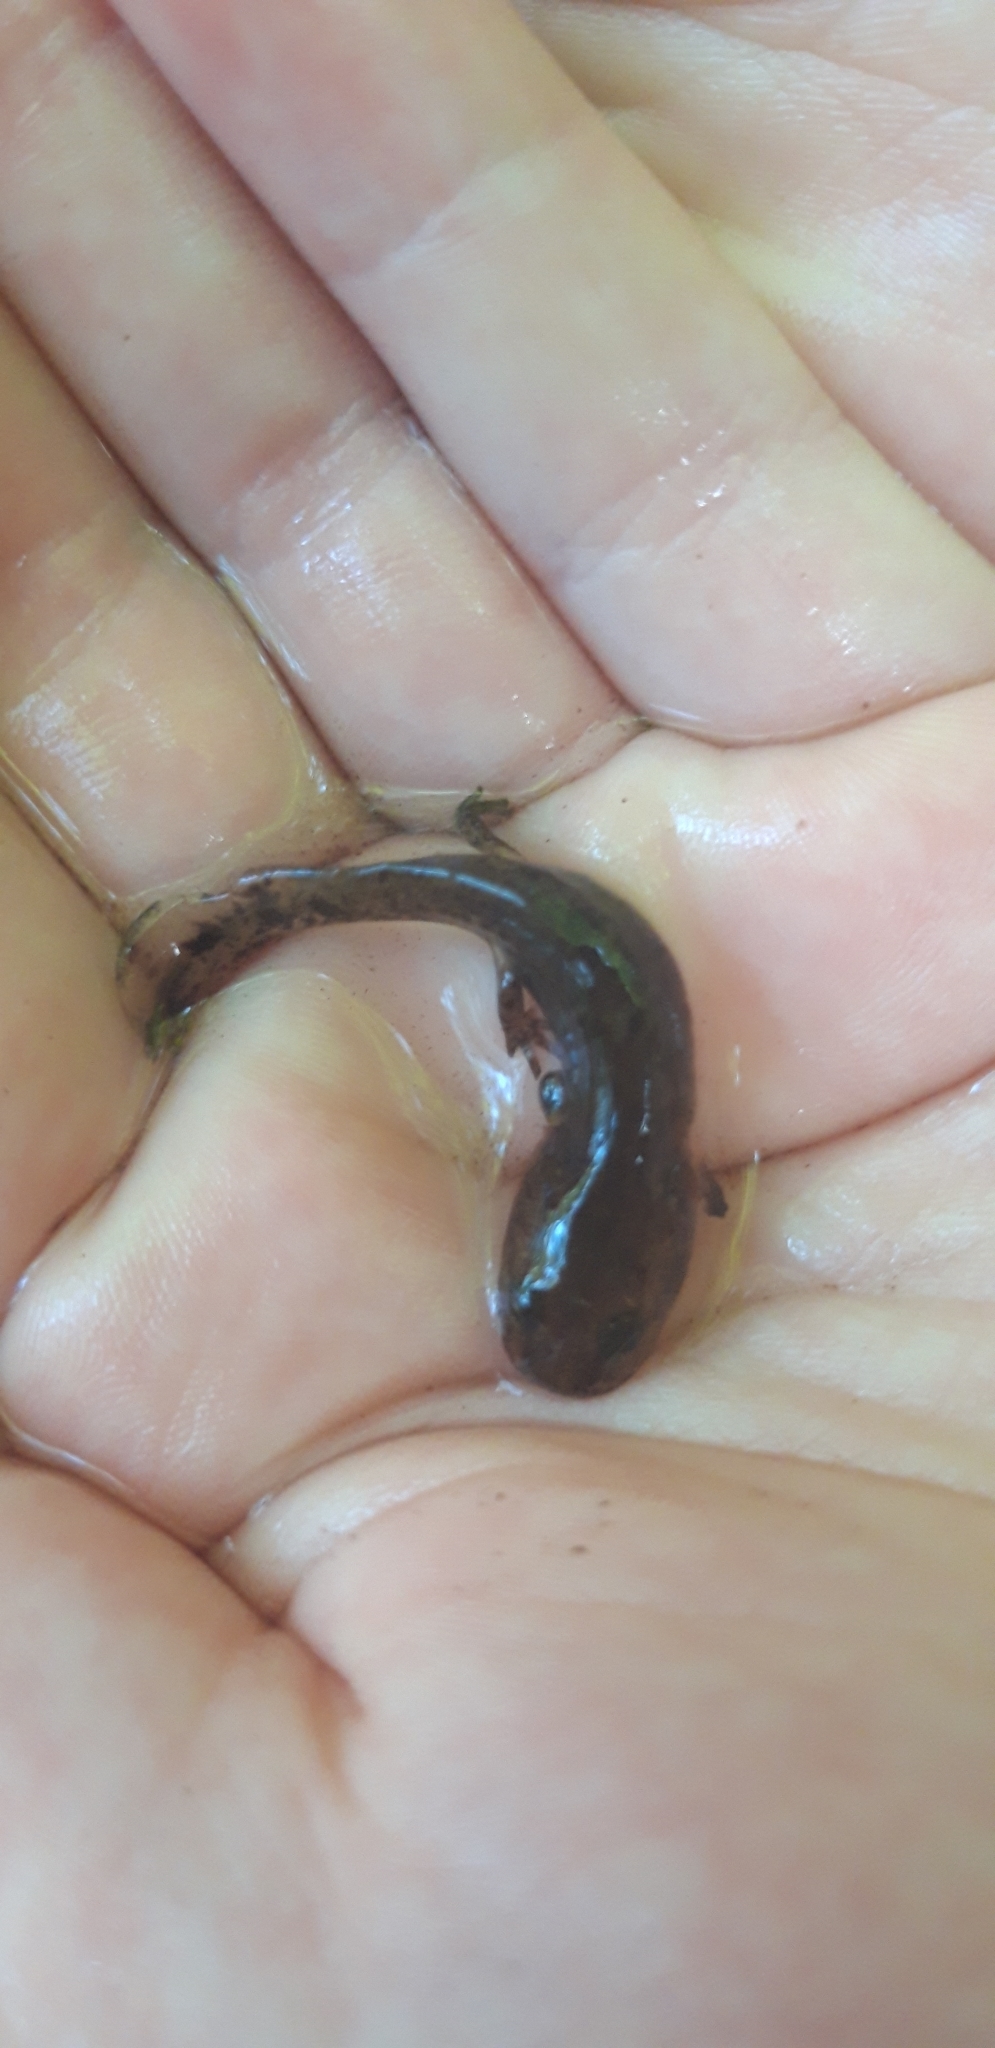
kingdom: Animalia
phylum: Chordata
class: Amphibia
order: Caudata
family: Salamandridae
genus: Salamandra
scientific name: Salamandra salamandra
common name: Fire salamander
